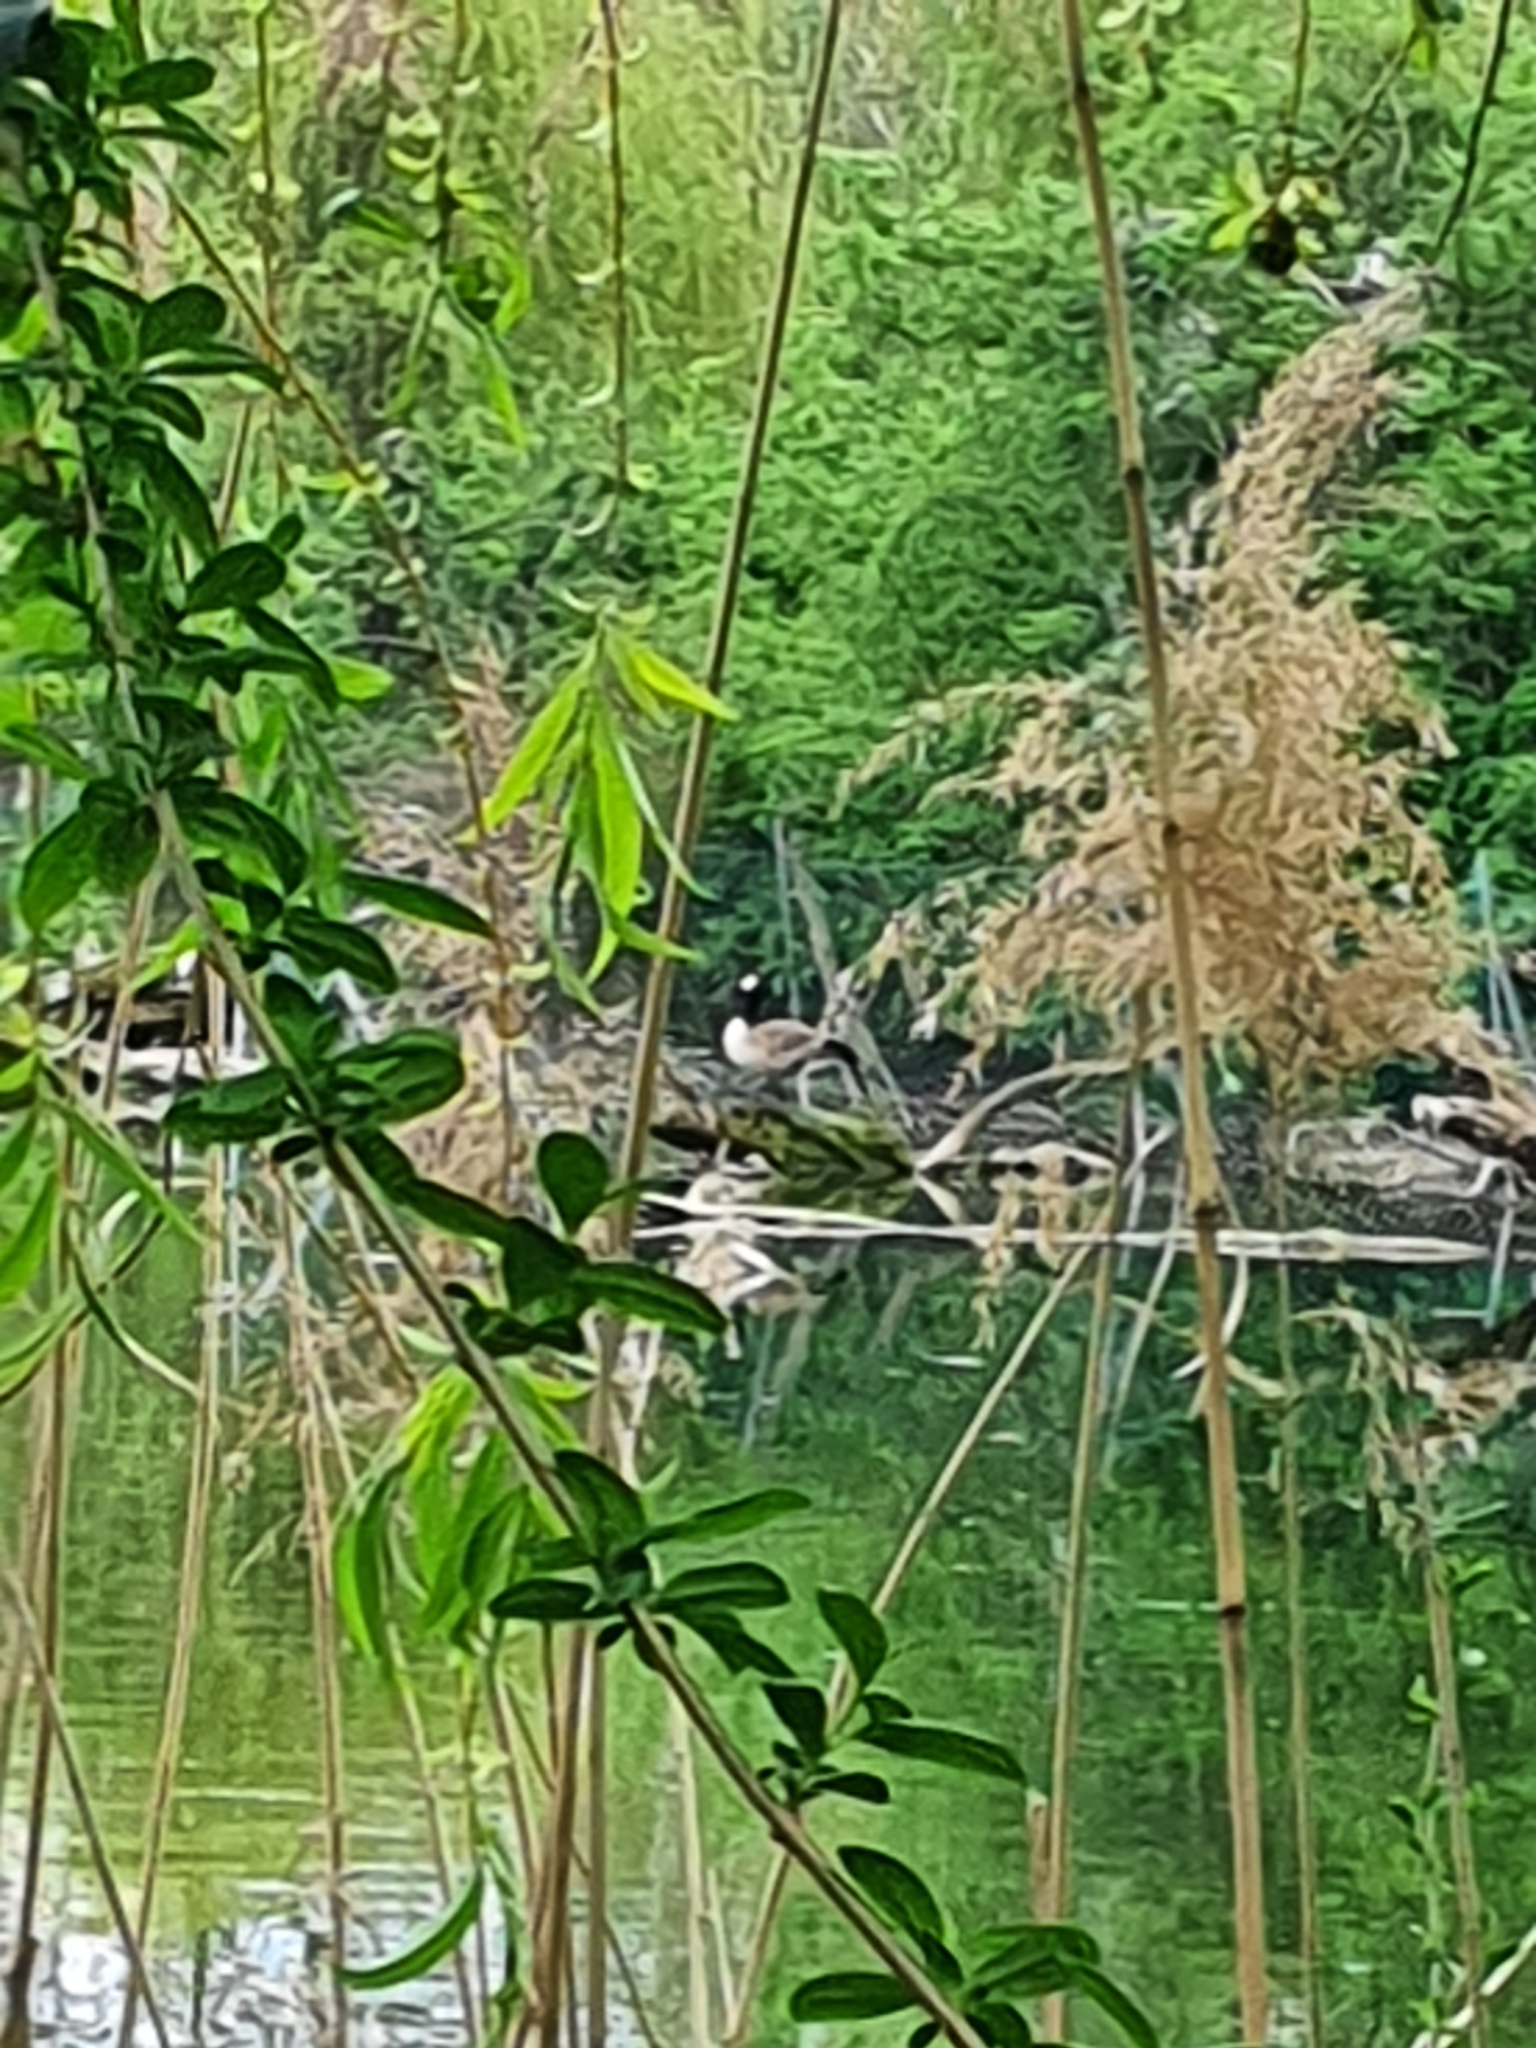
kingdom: Animalia
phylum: Chordata
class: Aves
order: Anseriformes
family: Anatidae
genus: Branta
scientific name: Branta canadensis
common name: Canada goose
